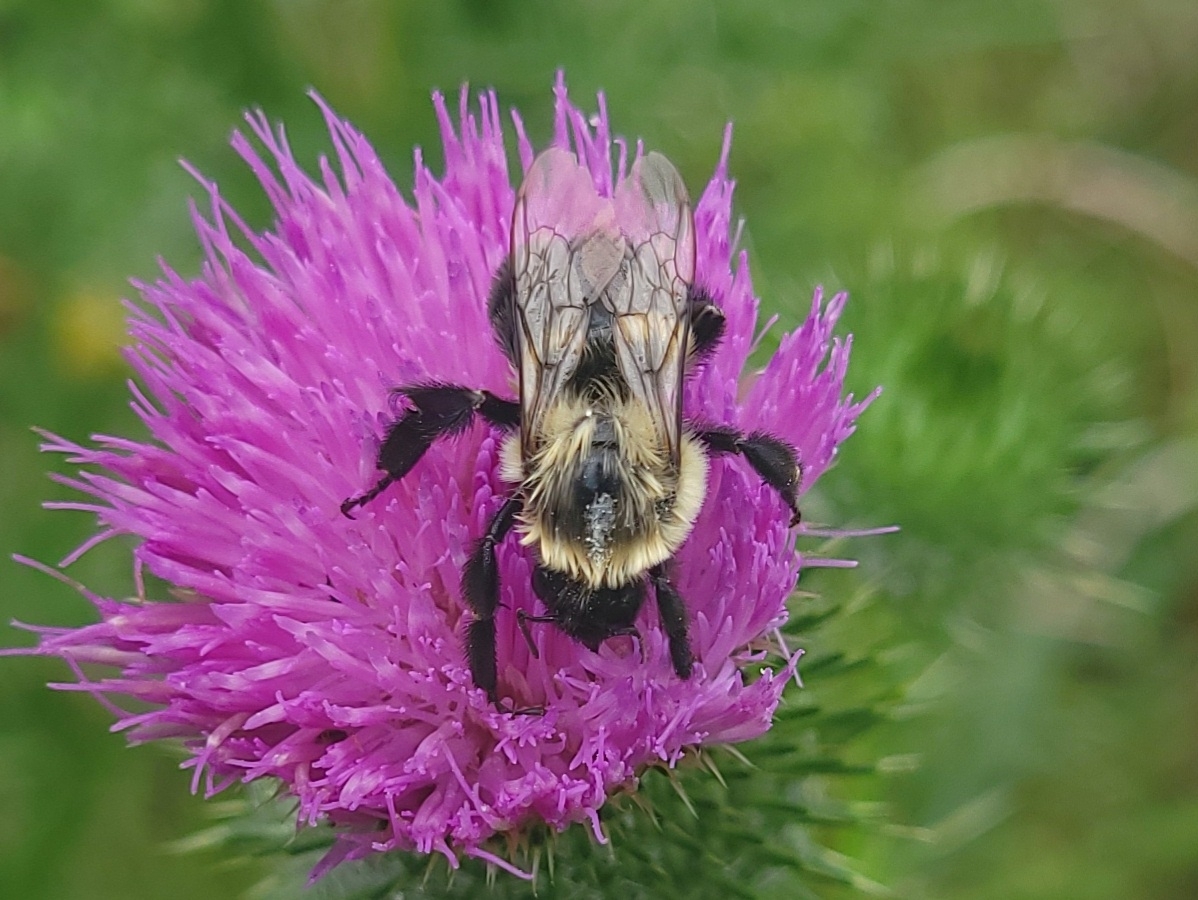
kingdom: Animalia
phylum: Arthropoda
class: Insecta
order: Hymenoptera
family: Apidae
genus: Bombus
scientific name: Bombus impatiens
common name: Common eastern bumble bee
